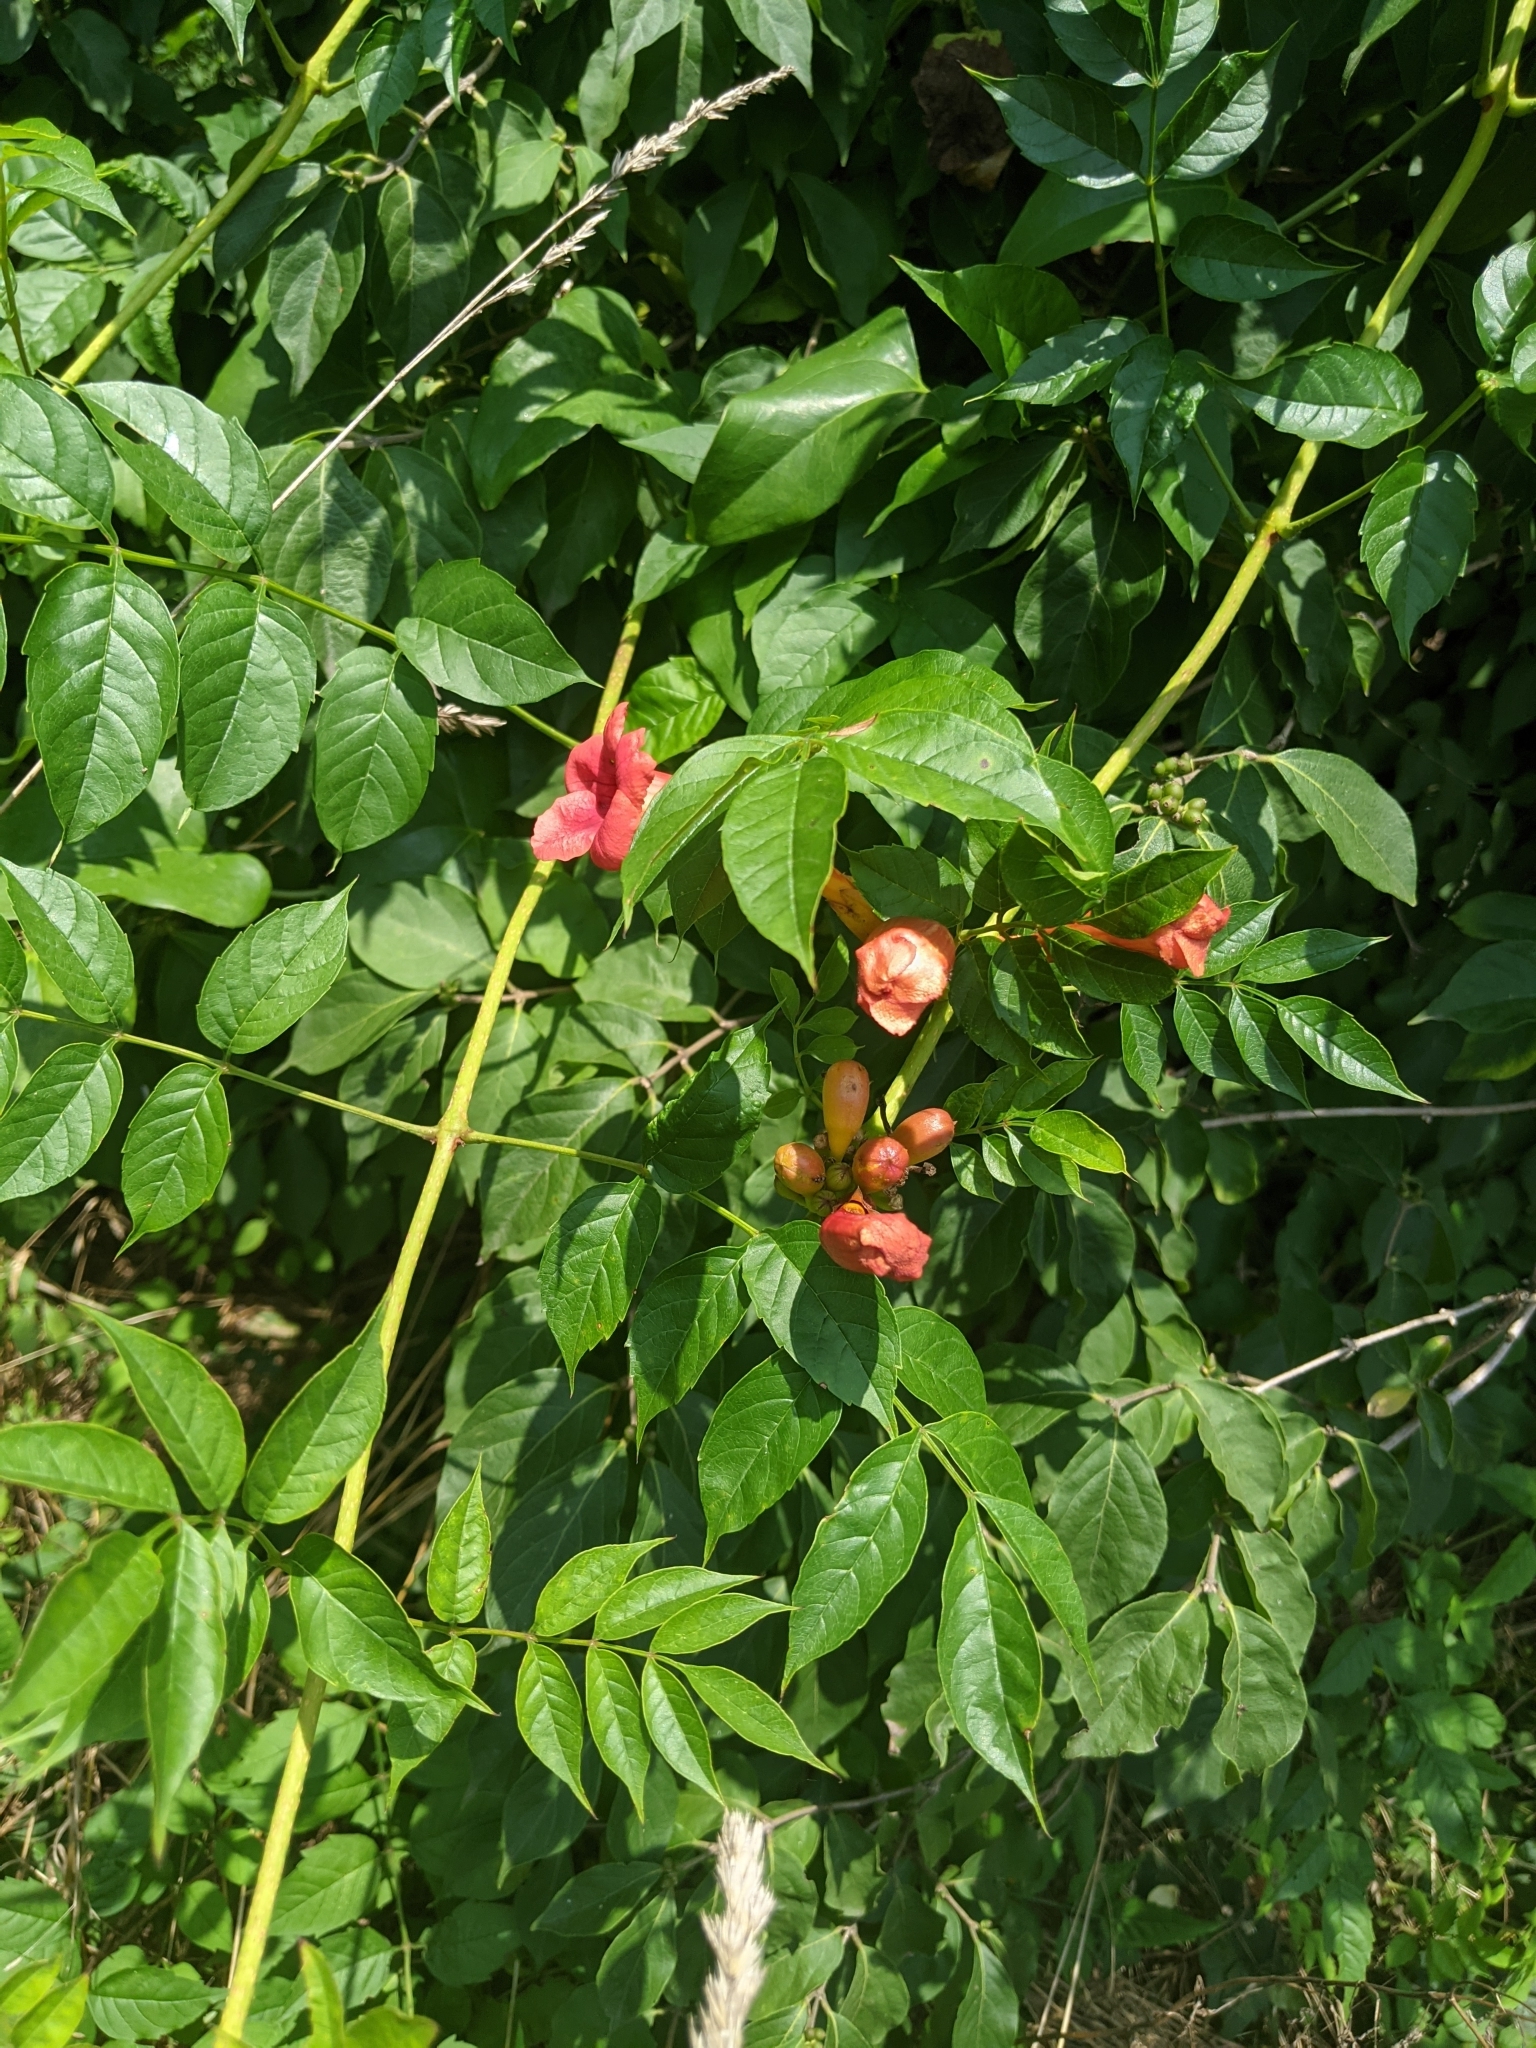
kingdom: Plantae
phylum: Tracheophyta
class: Magnoliopsida
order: Lamiales
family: Bignoniaceae
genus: Campsis
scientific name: Campsis radicans
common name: Trumpet-creeper
